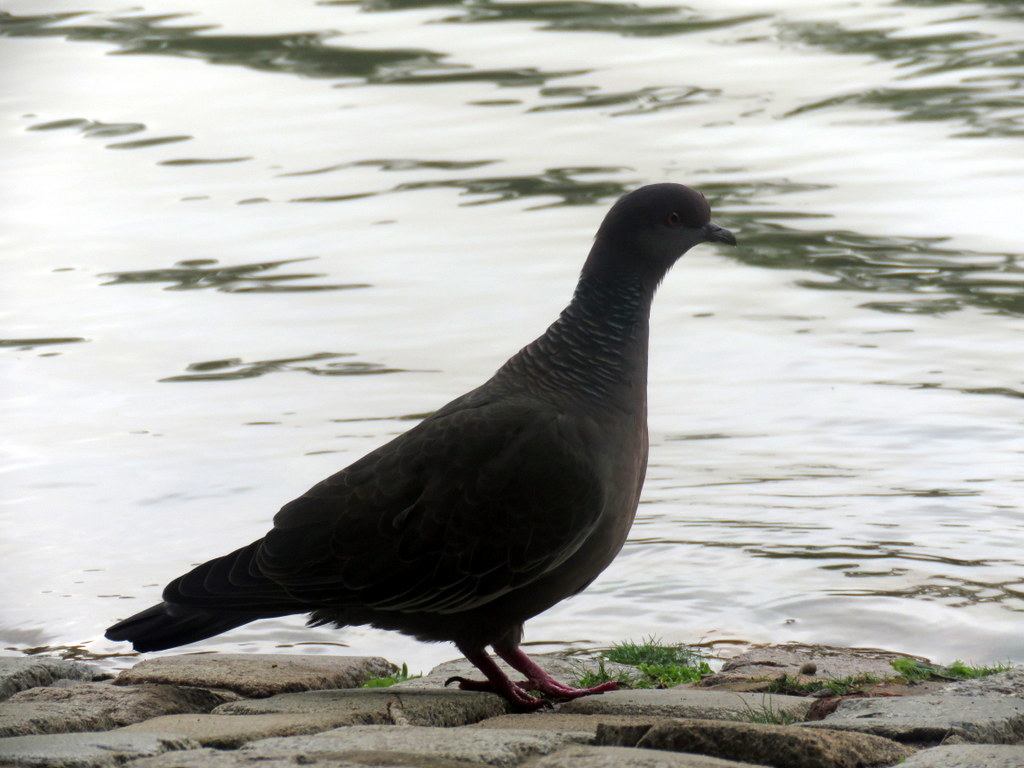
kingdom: Animalia
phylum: Chordata
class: Aves
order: Columbiformes
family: Columbidae
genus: Patagioenas
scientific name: Patagioenas picazuro
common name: Picazuro pigeon
